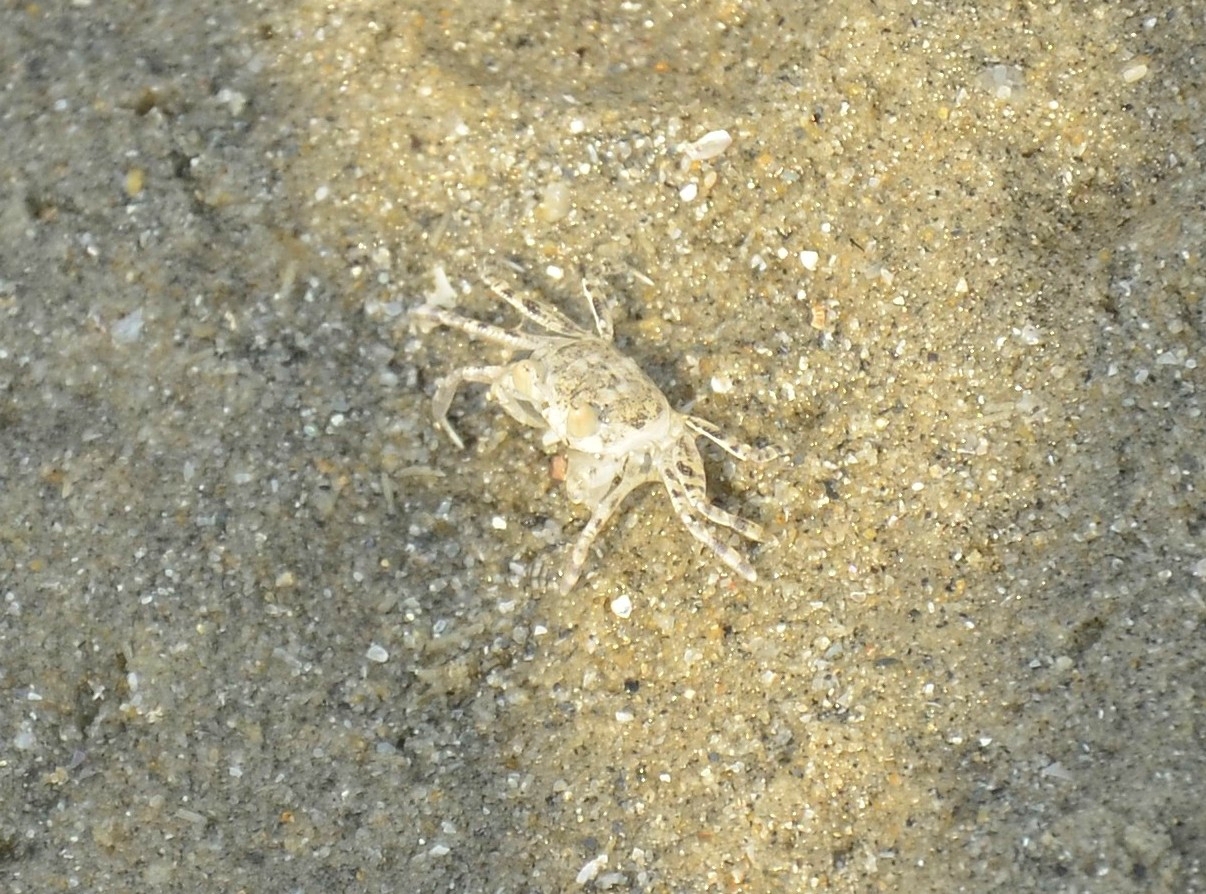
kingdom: Animalia
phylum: Arthropoda
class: Malacostraca
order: Decapoda
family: Ocypodidae
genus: Ocypode
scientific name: Ocypode brevicornis
